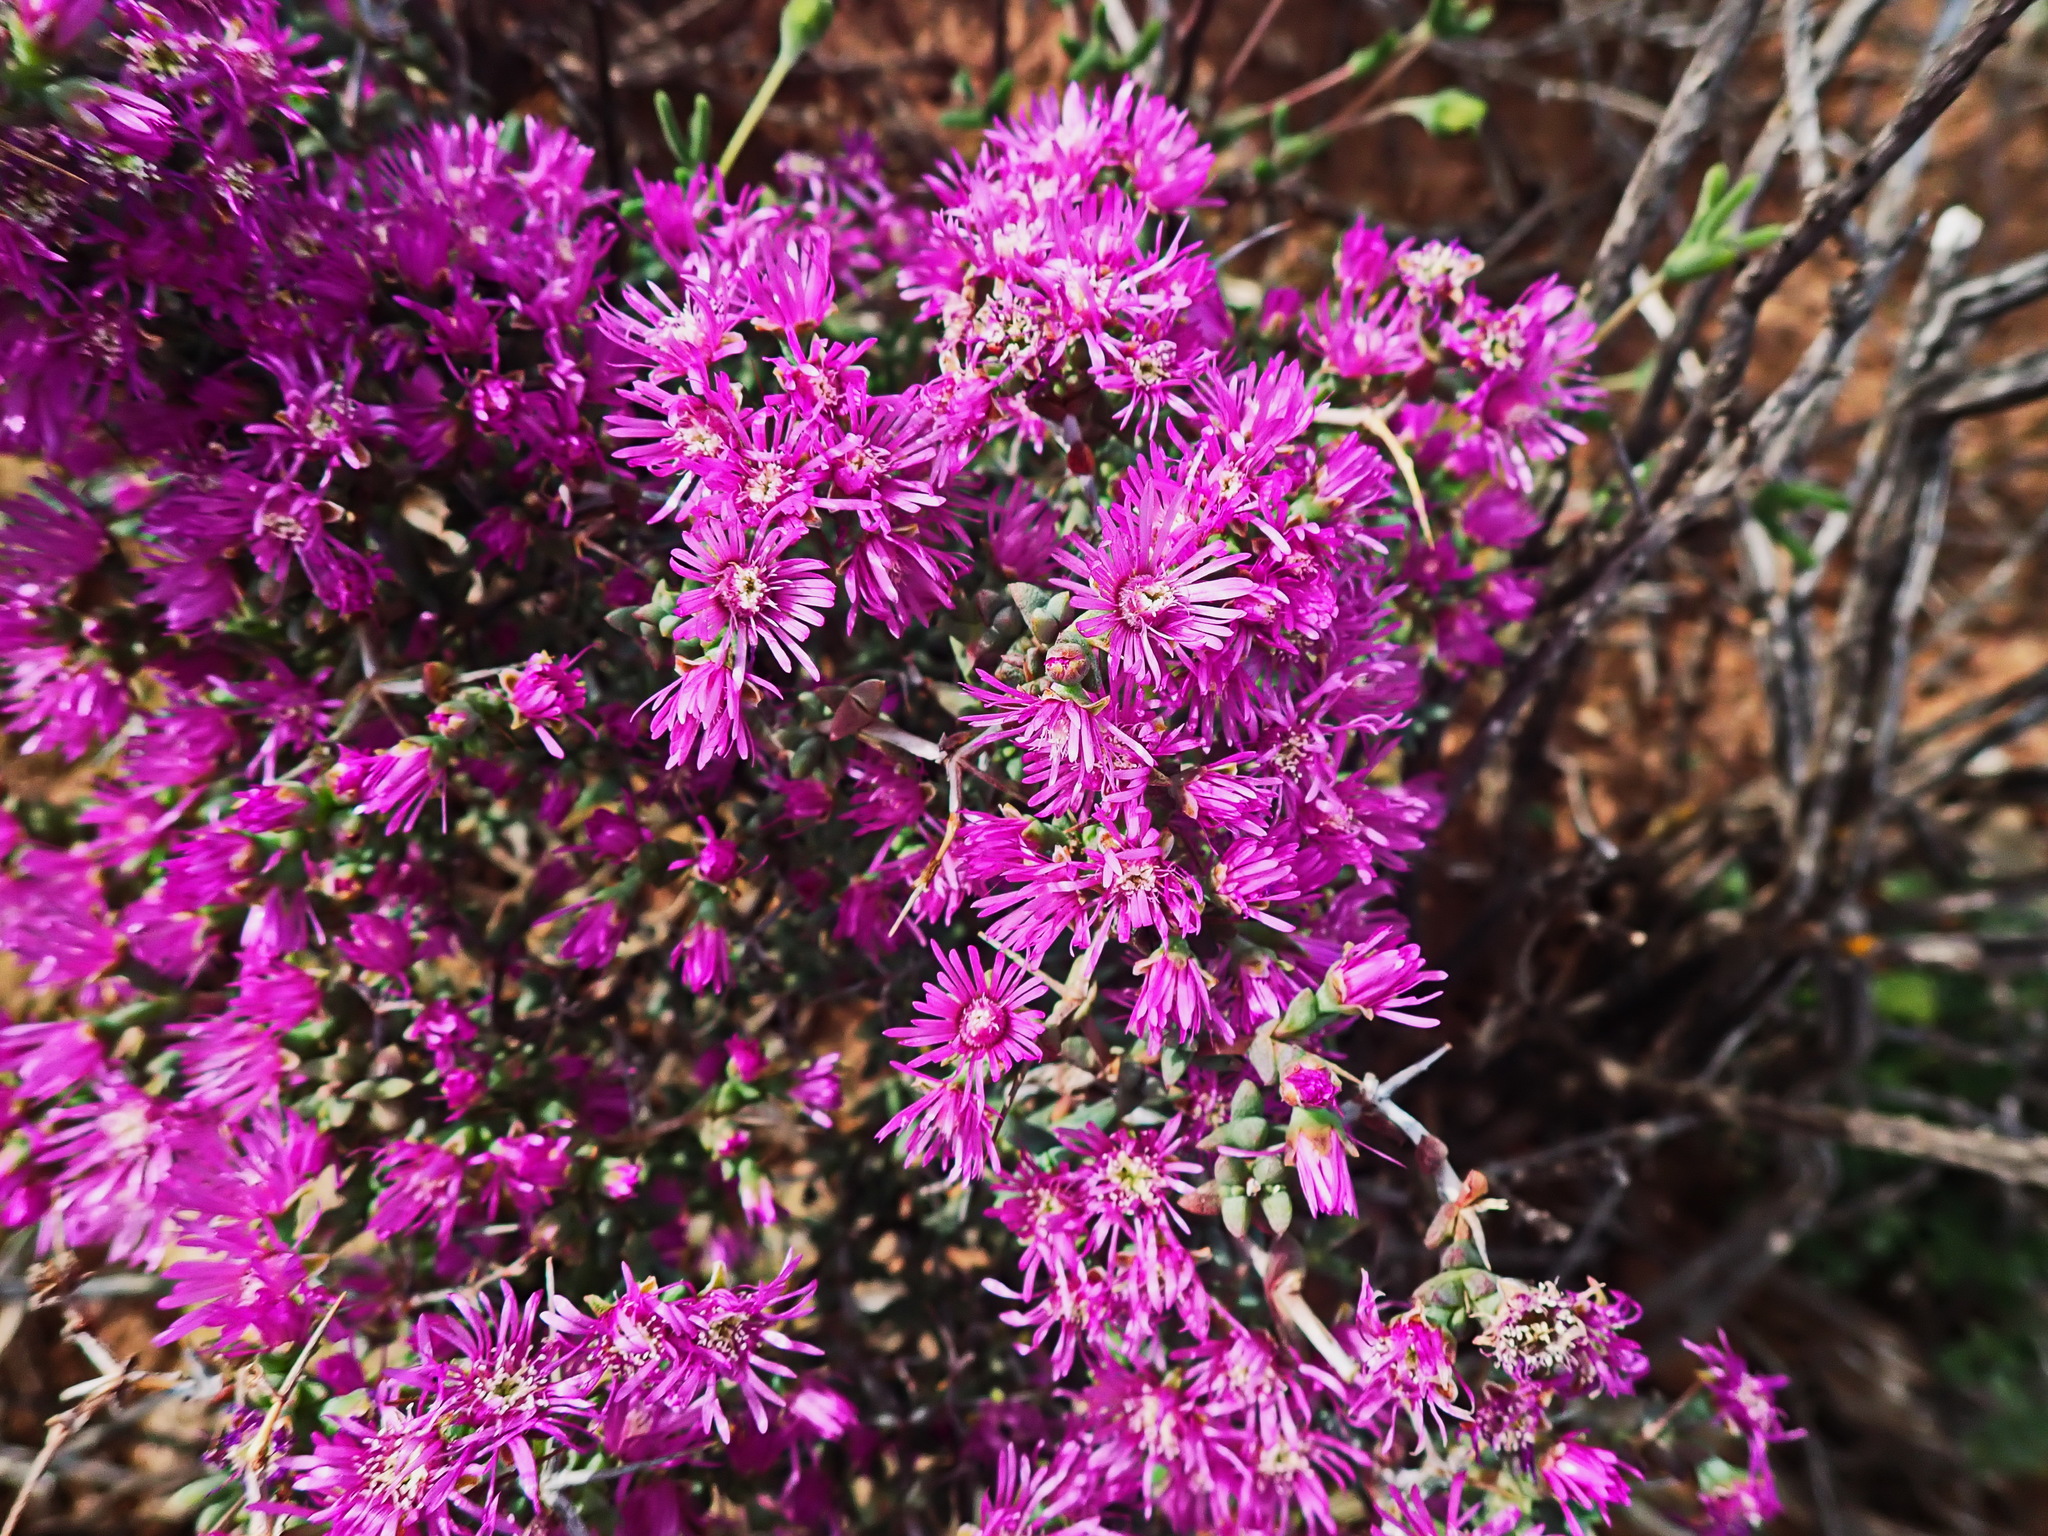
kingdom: Plantae
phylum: Tracheophyta
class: Magnoliopsida
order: Caryophyllales
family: Aizoaceae
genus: Ruschia
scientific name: Ruschia cradockensis
